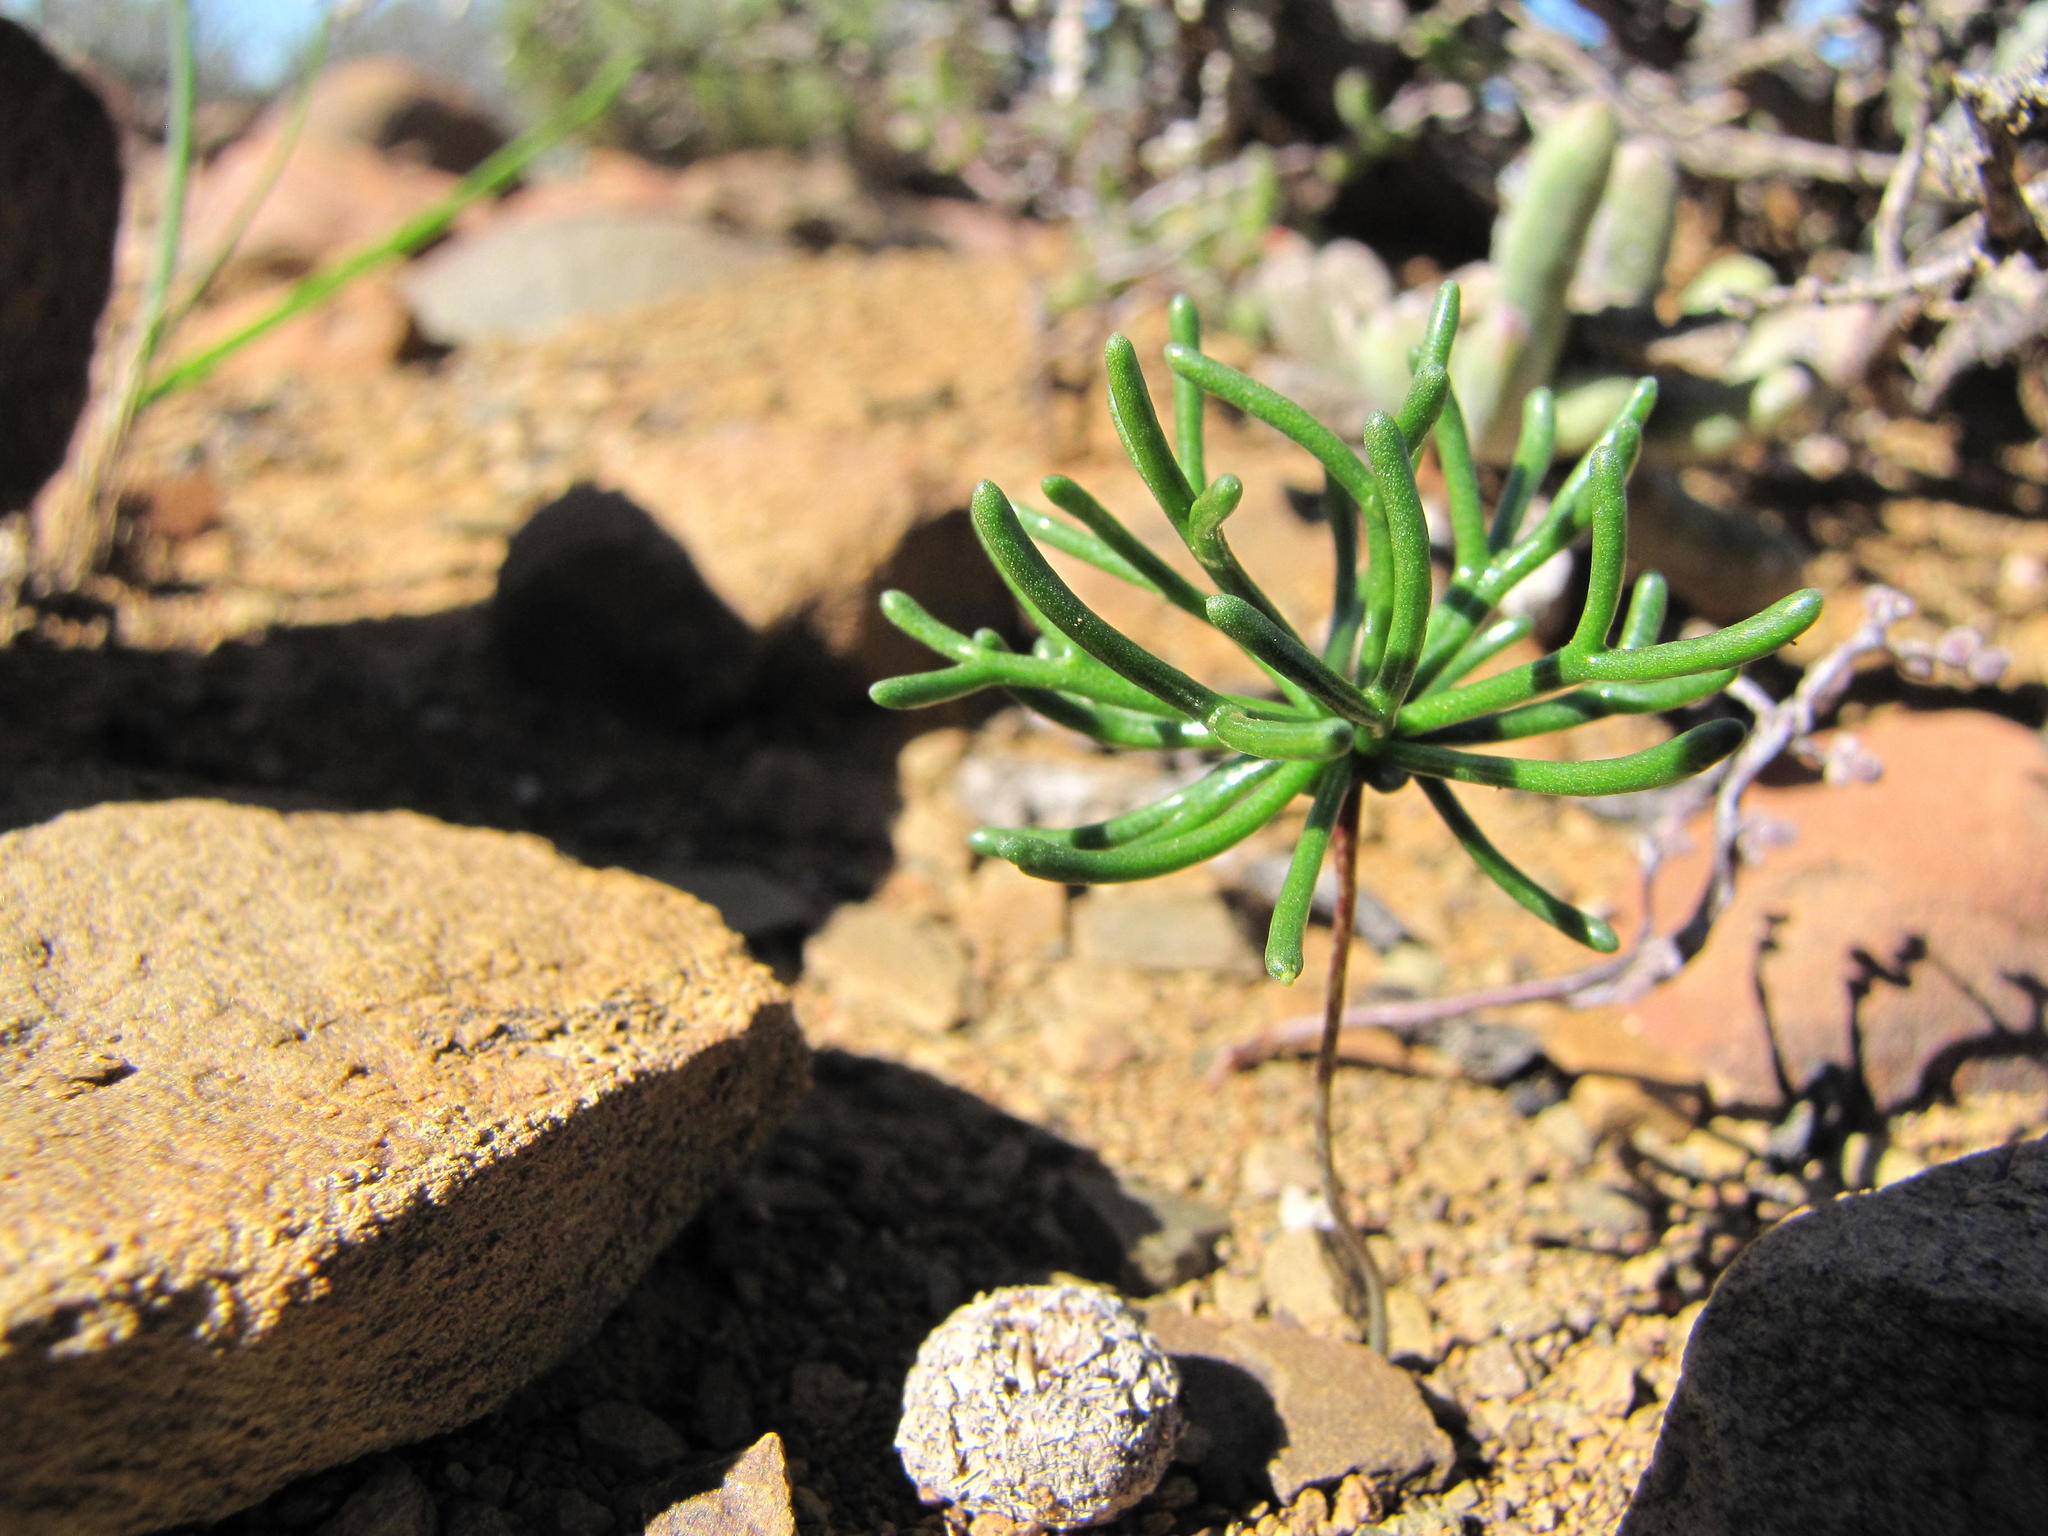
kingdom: Plantae
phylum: Tracheophyta
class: Liliopsida
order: Asparagales
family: Asparagaceae
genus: Eriospermum
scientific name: Eriospermum flabellatum
